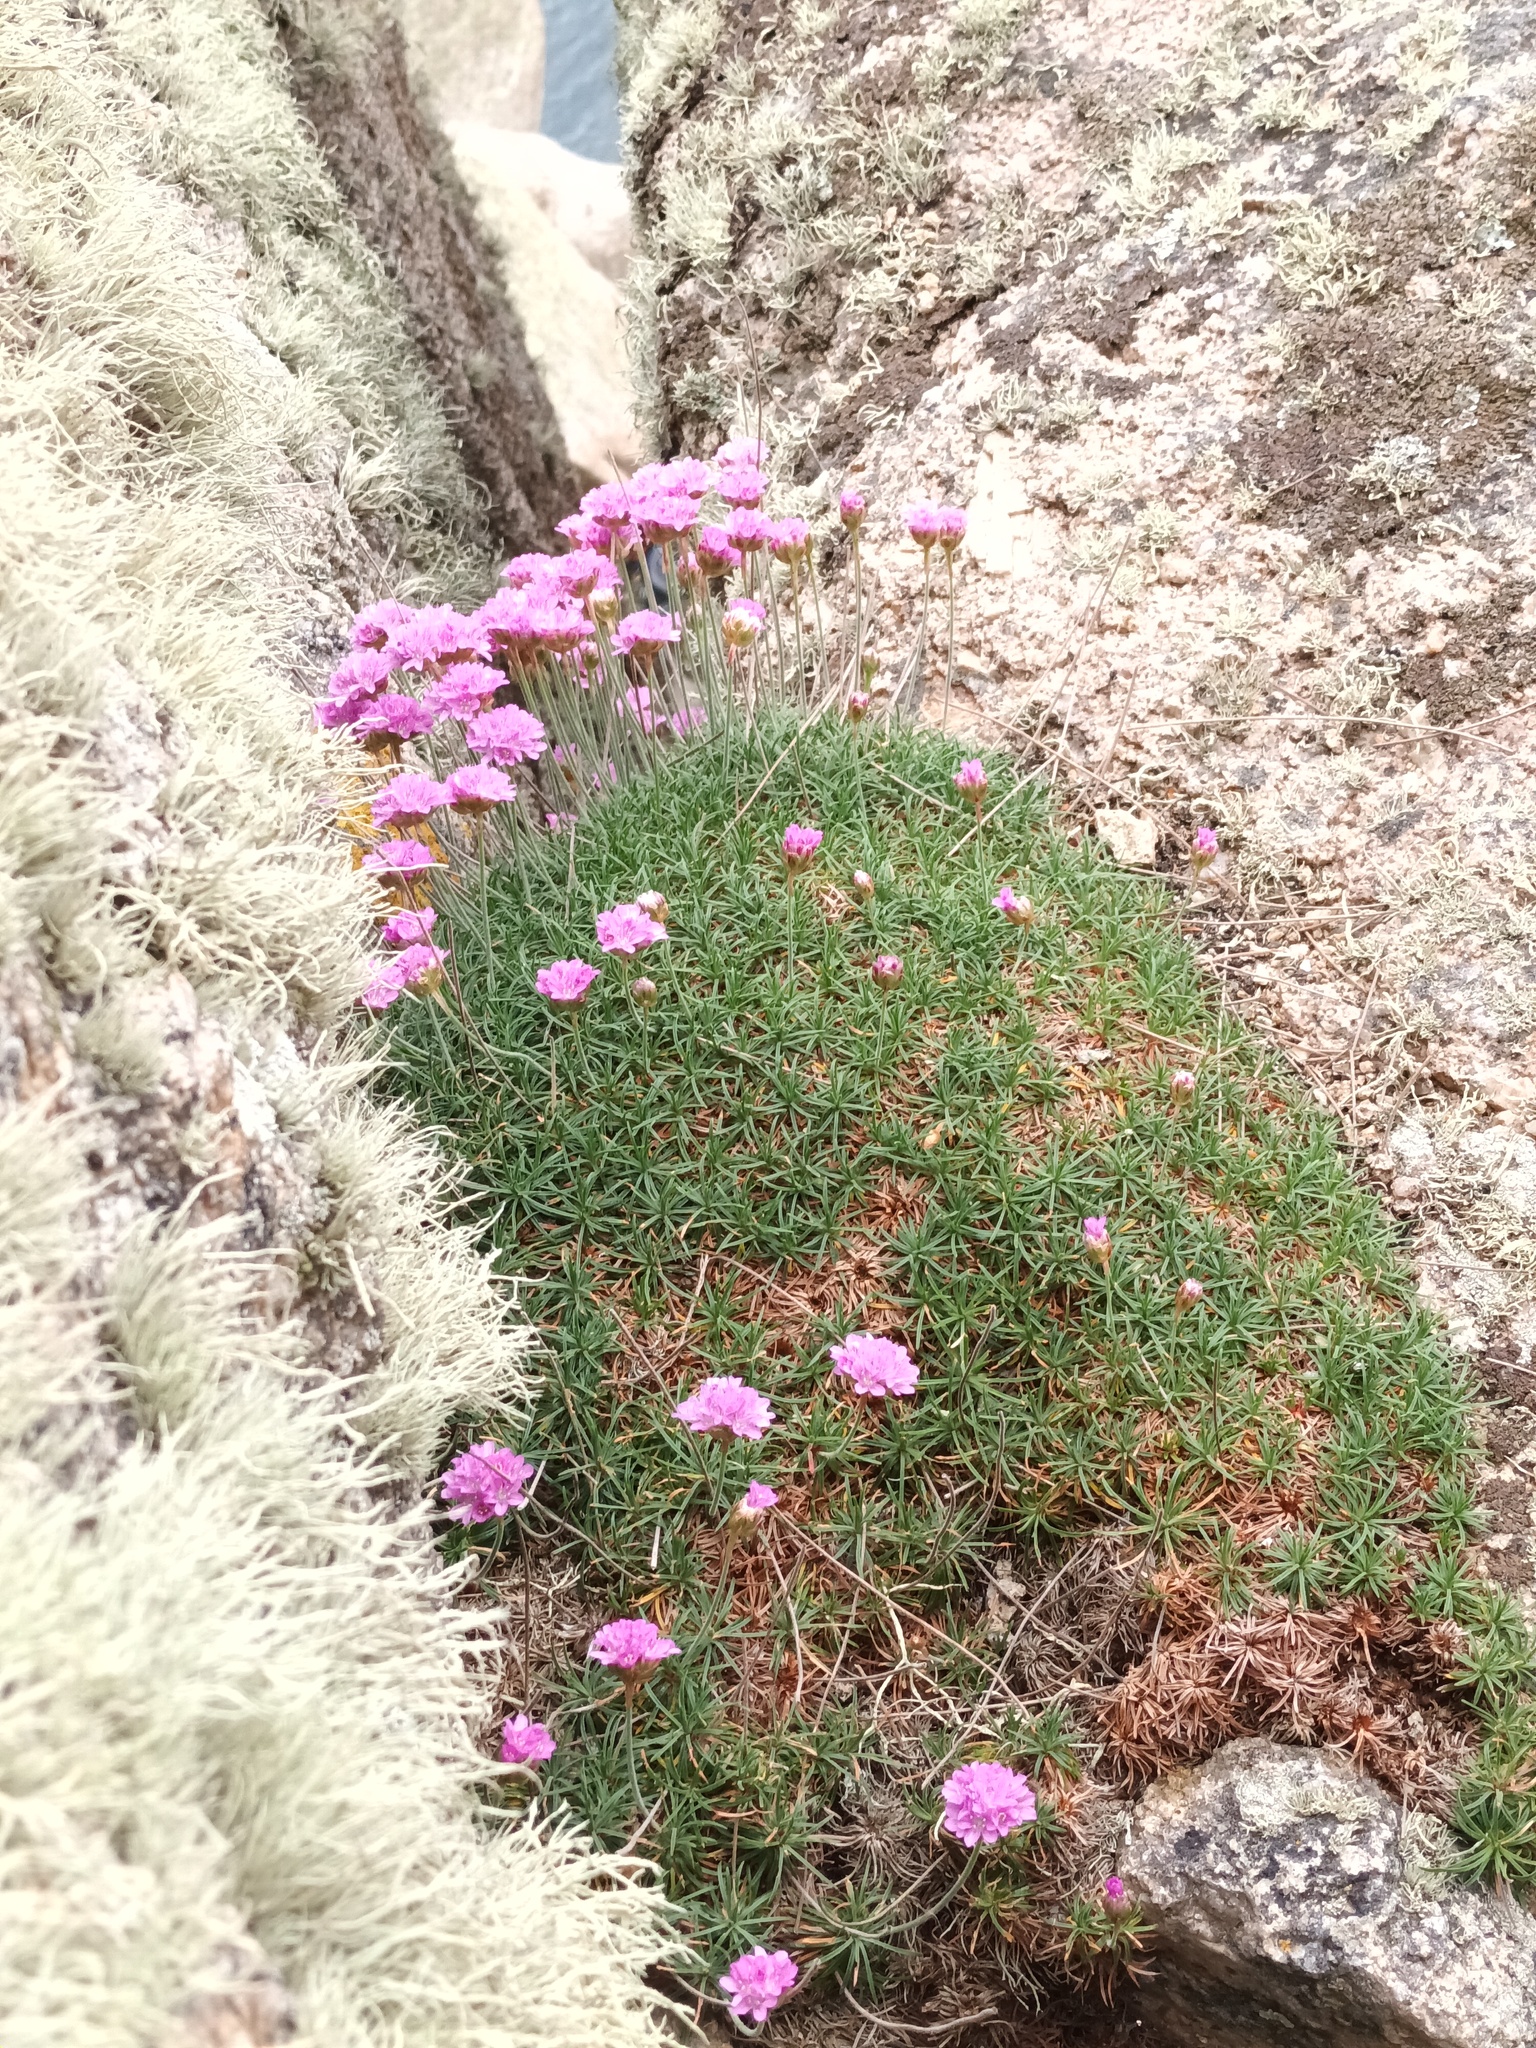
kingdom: Plantae
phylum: Tracheophyta
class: Magnoliopsida
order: Caryophyllales
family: Plumbaginaceae
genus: Armeria
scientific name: Armeria maritima
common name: Thrift
